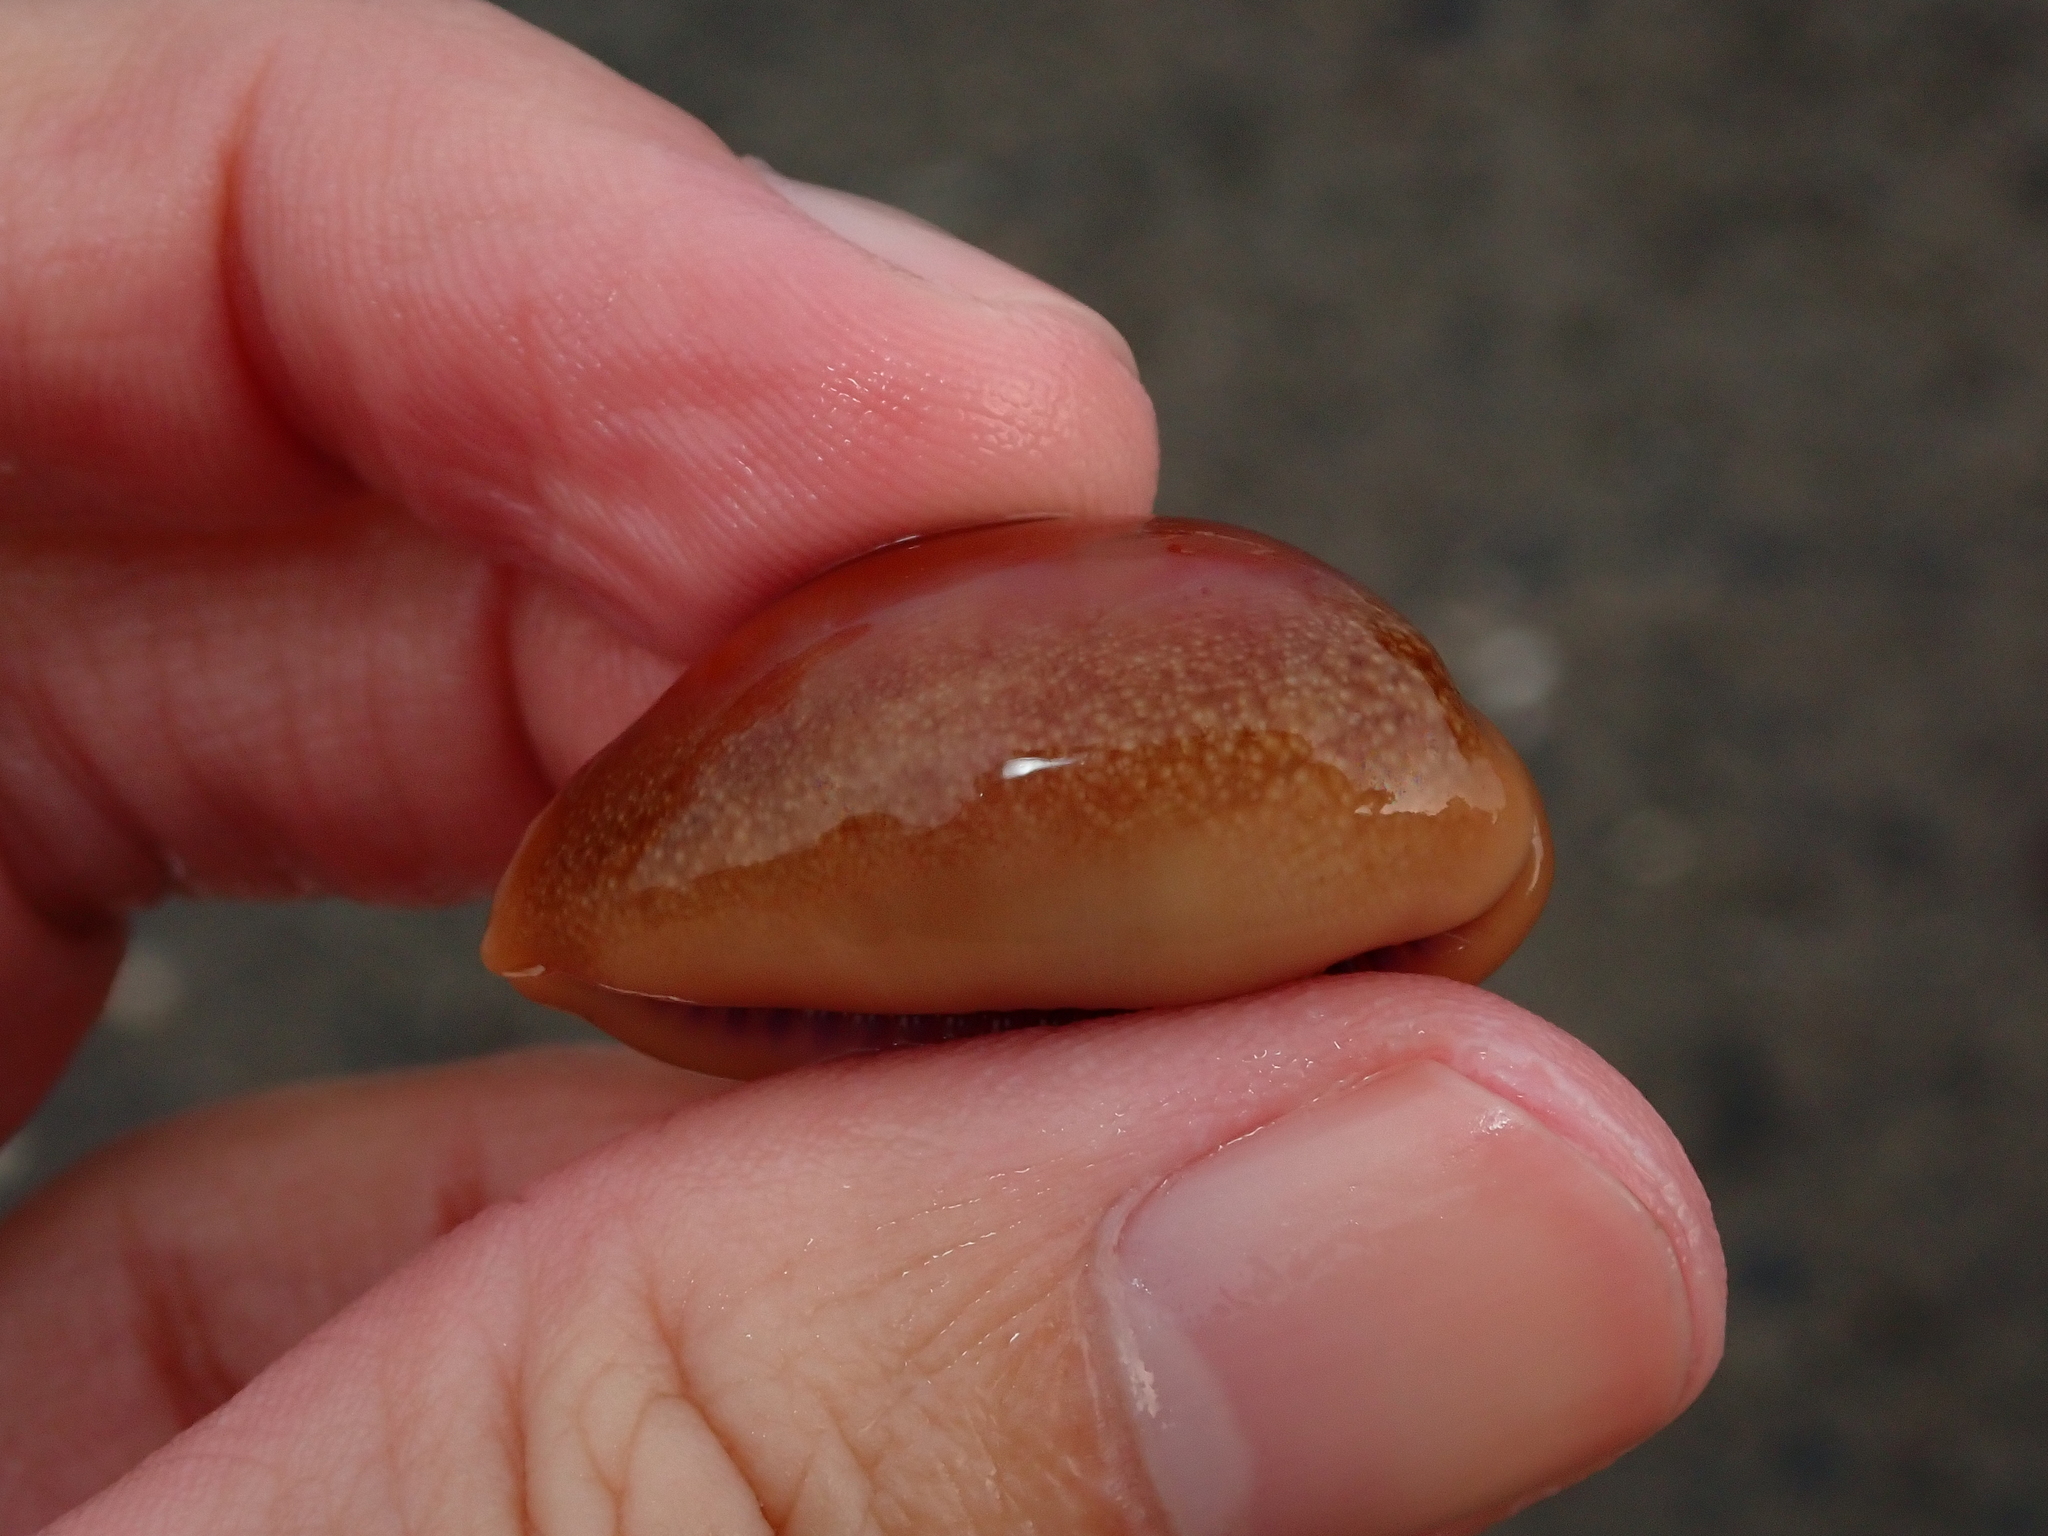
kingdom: Animalia
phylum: Mollusca
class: Gastropoda
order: Littorinimorpha
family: Cypraeidae
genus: Lyncina
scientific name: Lyncina carneola
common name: Purple-mouthed cowry
